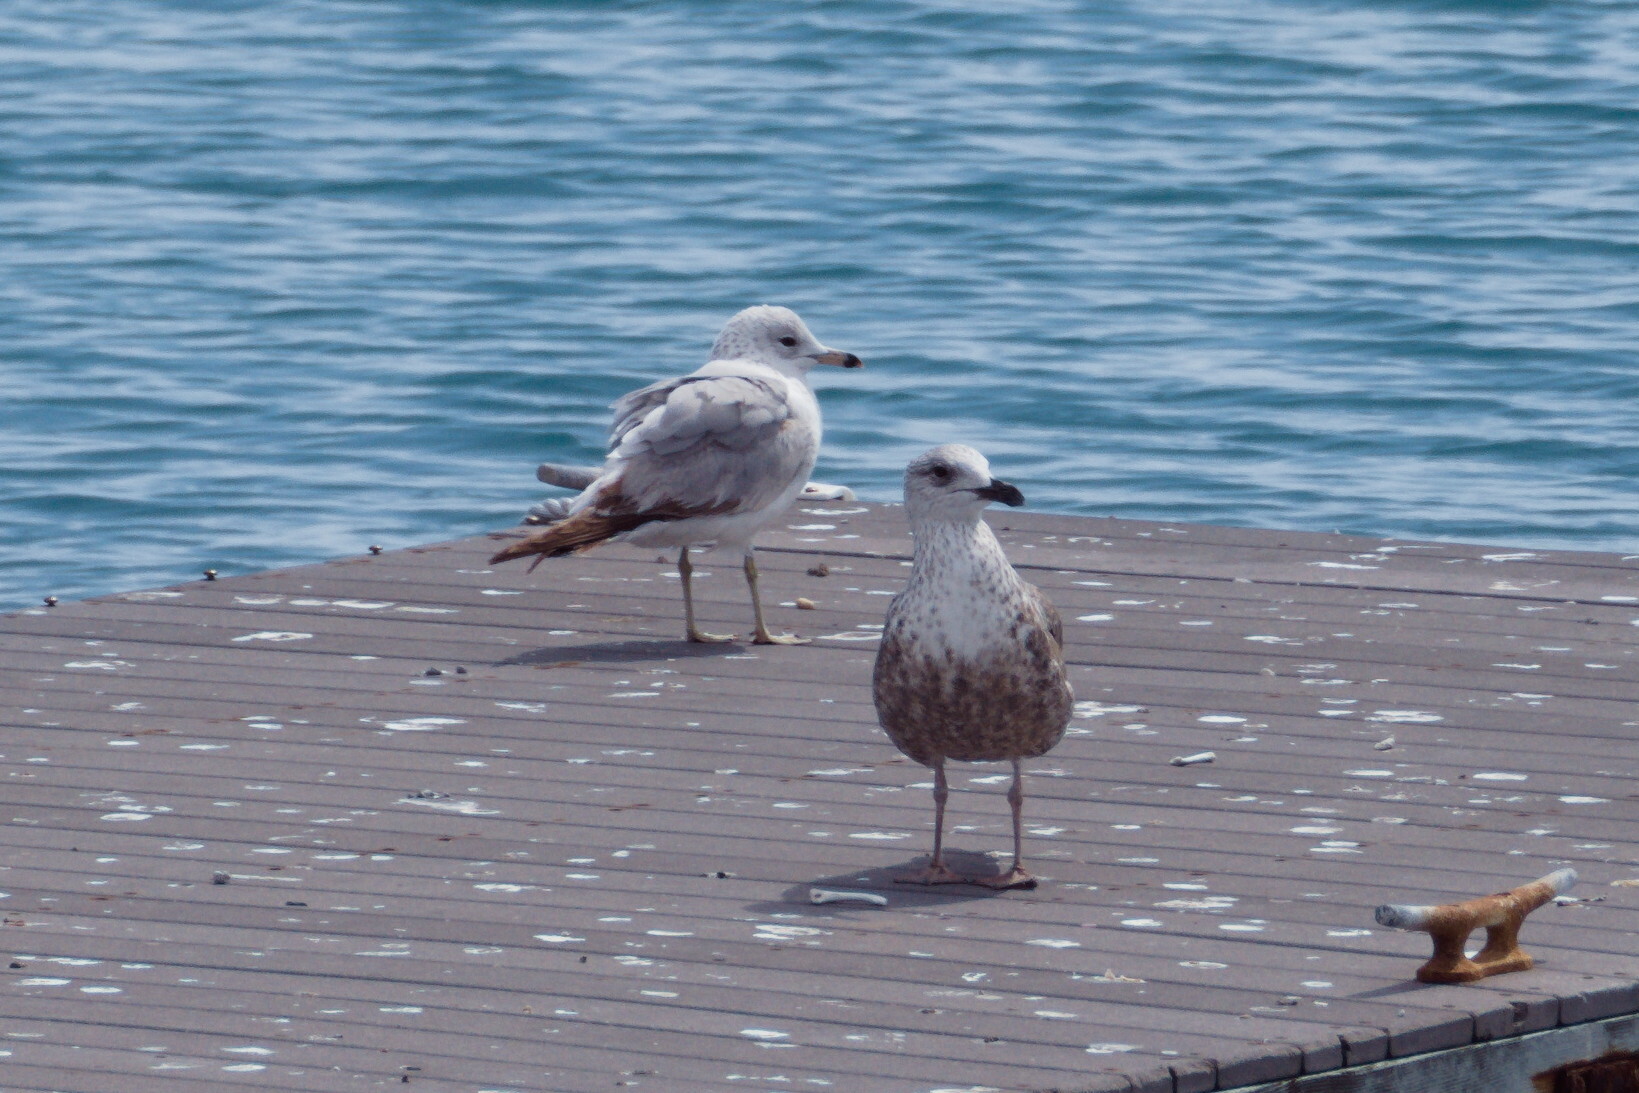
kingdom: Animalia
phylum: Chordata
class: Aves
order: Charadriiformes
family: Laridae
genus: Larus
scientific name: Larus delawarensis
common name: Ring-billed gull
